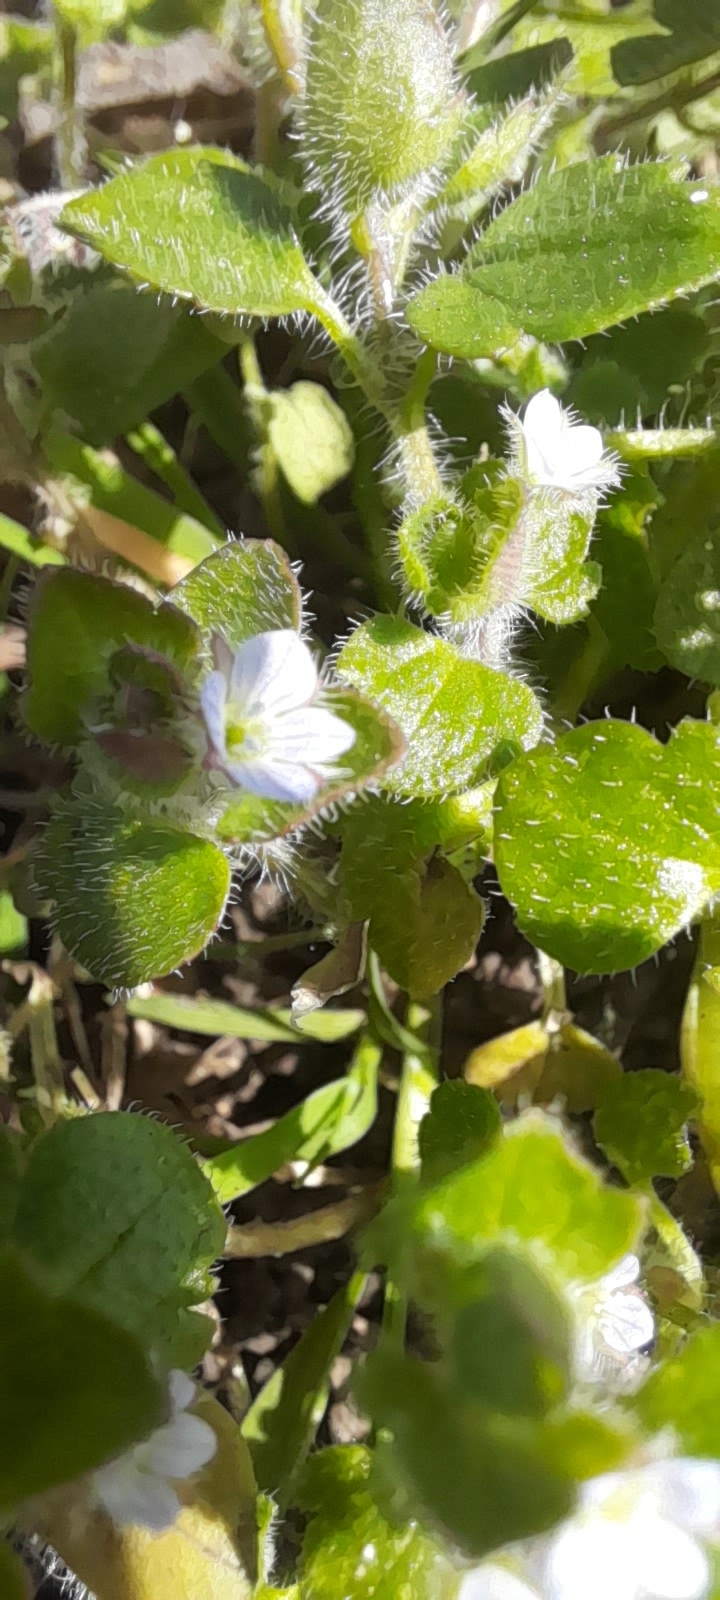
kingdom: Plantae
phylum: Tracheophyta
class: Magnoliopsida
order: Lamiales
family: Plantaginaceae
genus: Veronica
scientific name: Veronica sublobata
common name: False ivy-leaved speedwell
